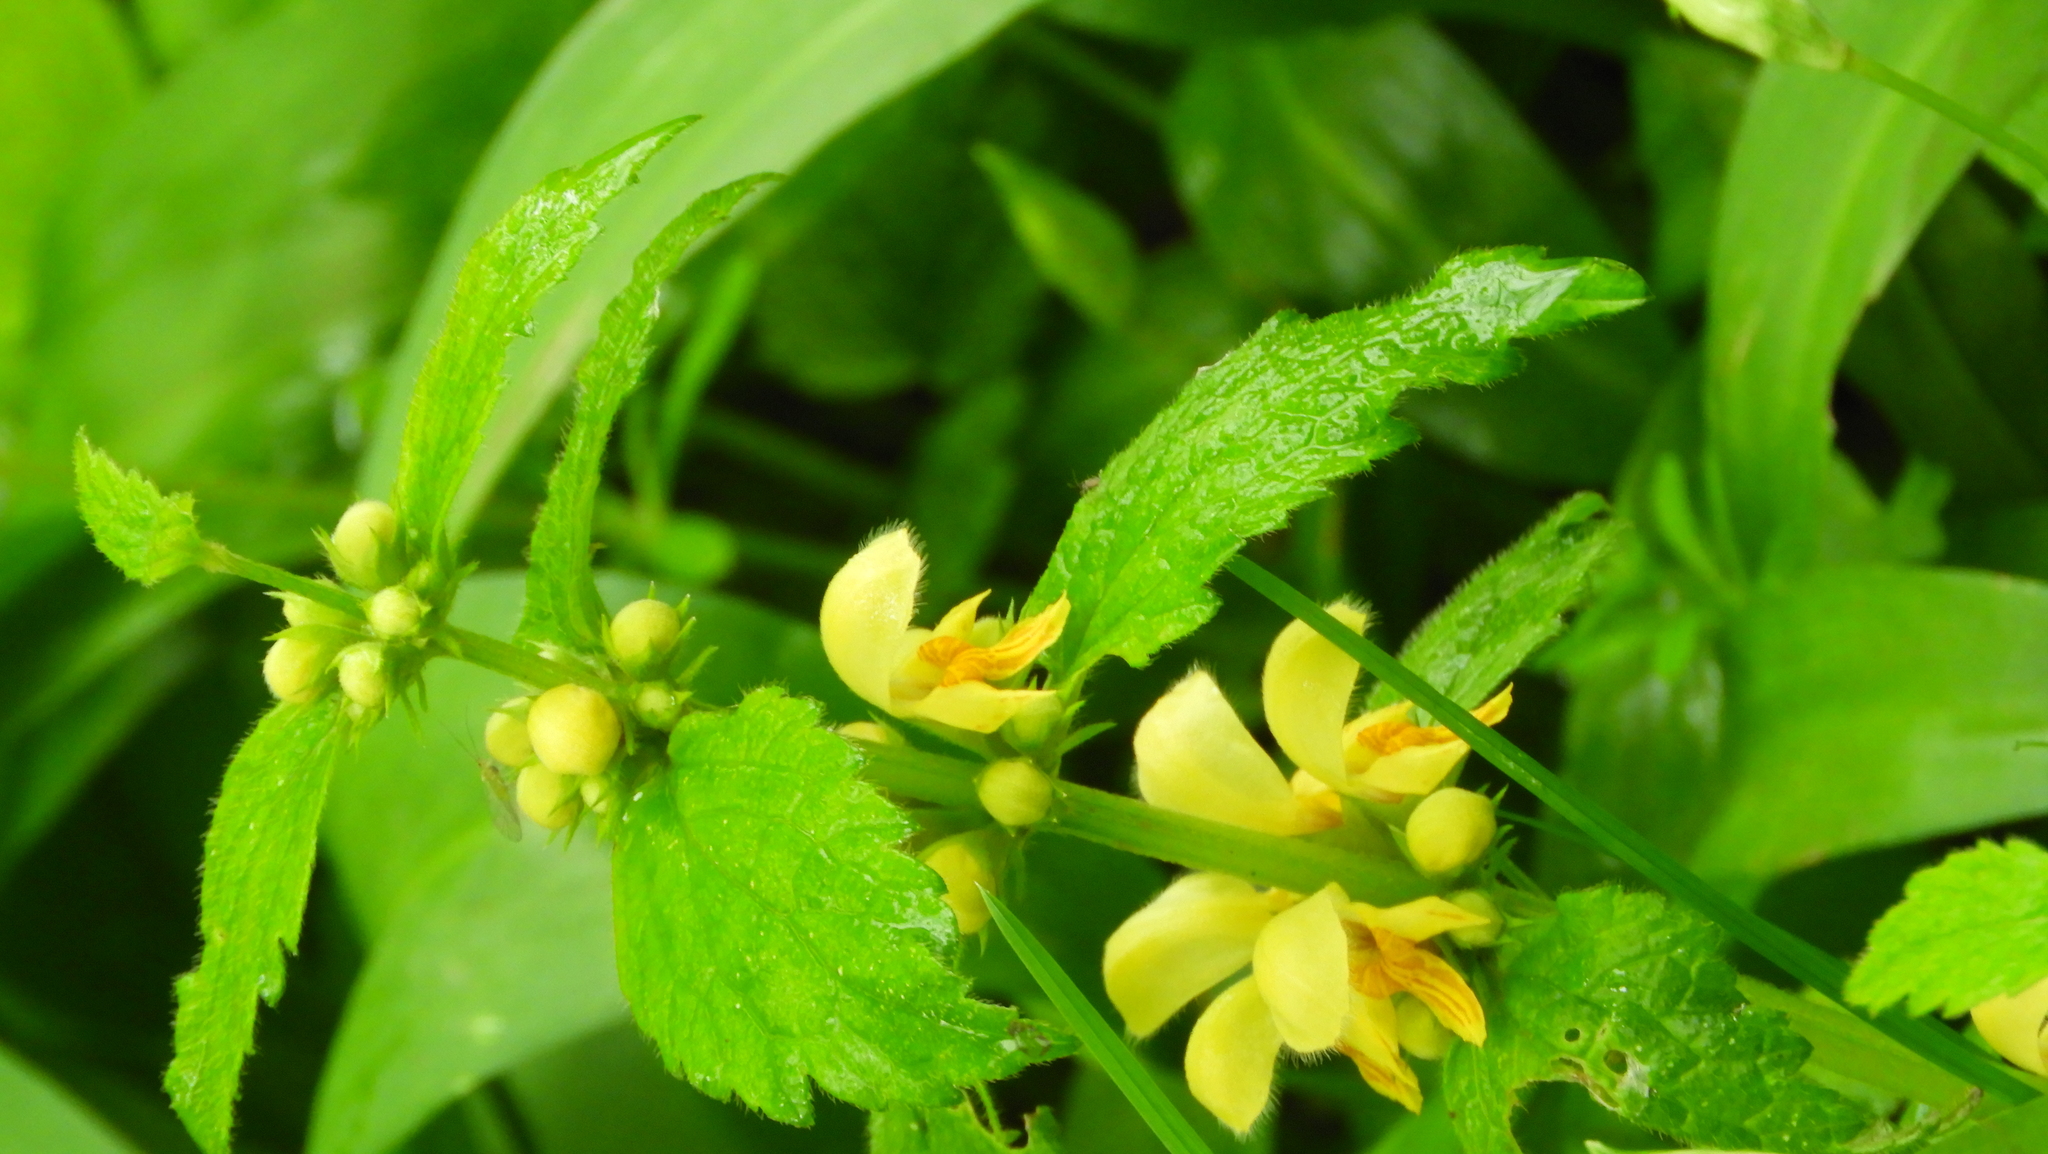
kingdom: Plantae
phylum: Tracheophyta
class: Magnoliopsida
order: Lamiales
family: Lamiaceae
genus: Lamium
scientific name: Lamium galeobdolon
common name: Yellow archangel
